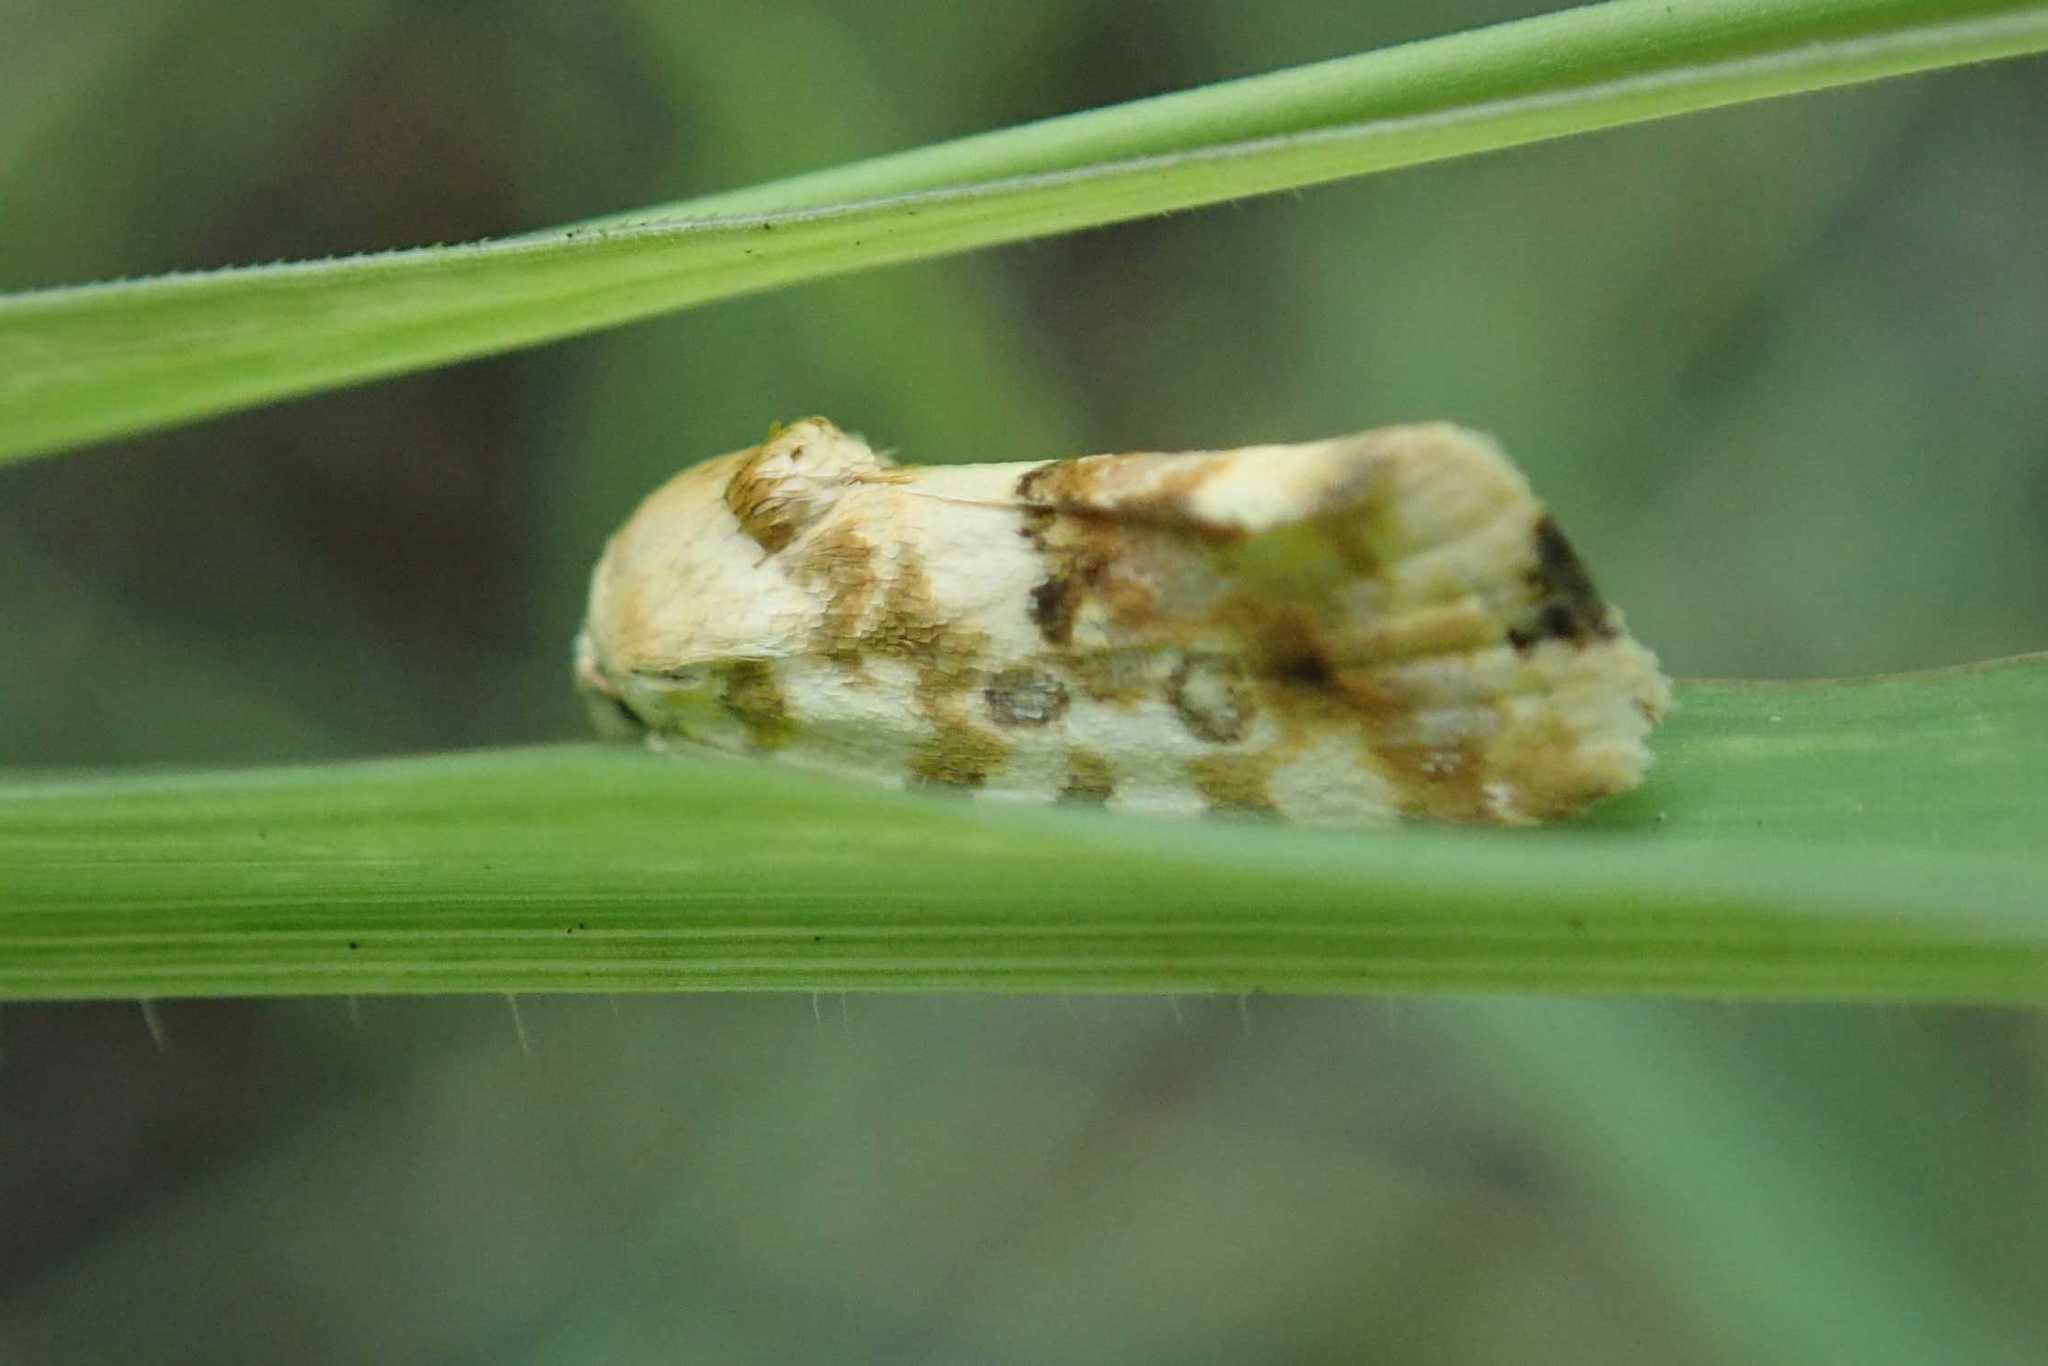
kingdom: Animalia
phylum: Arthropoda
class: Insecta
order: Lepidoptera
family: Noctuidae
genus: Acontia
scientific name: Acontia zelleri
